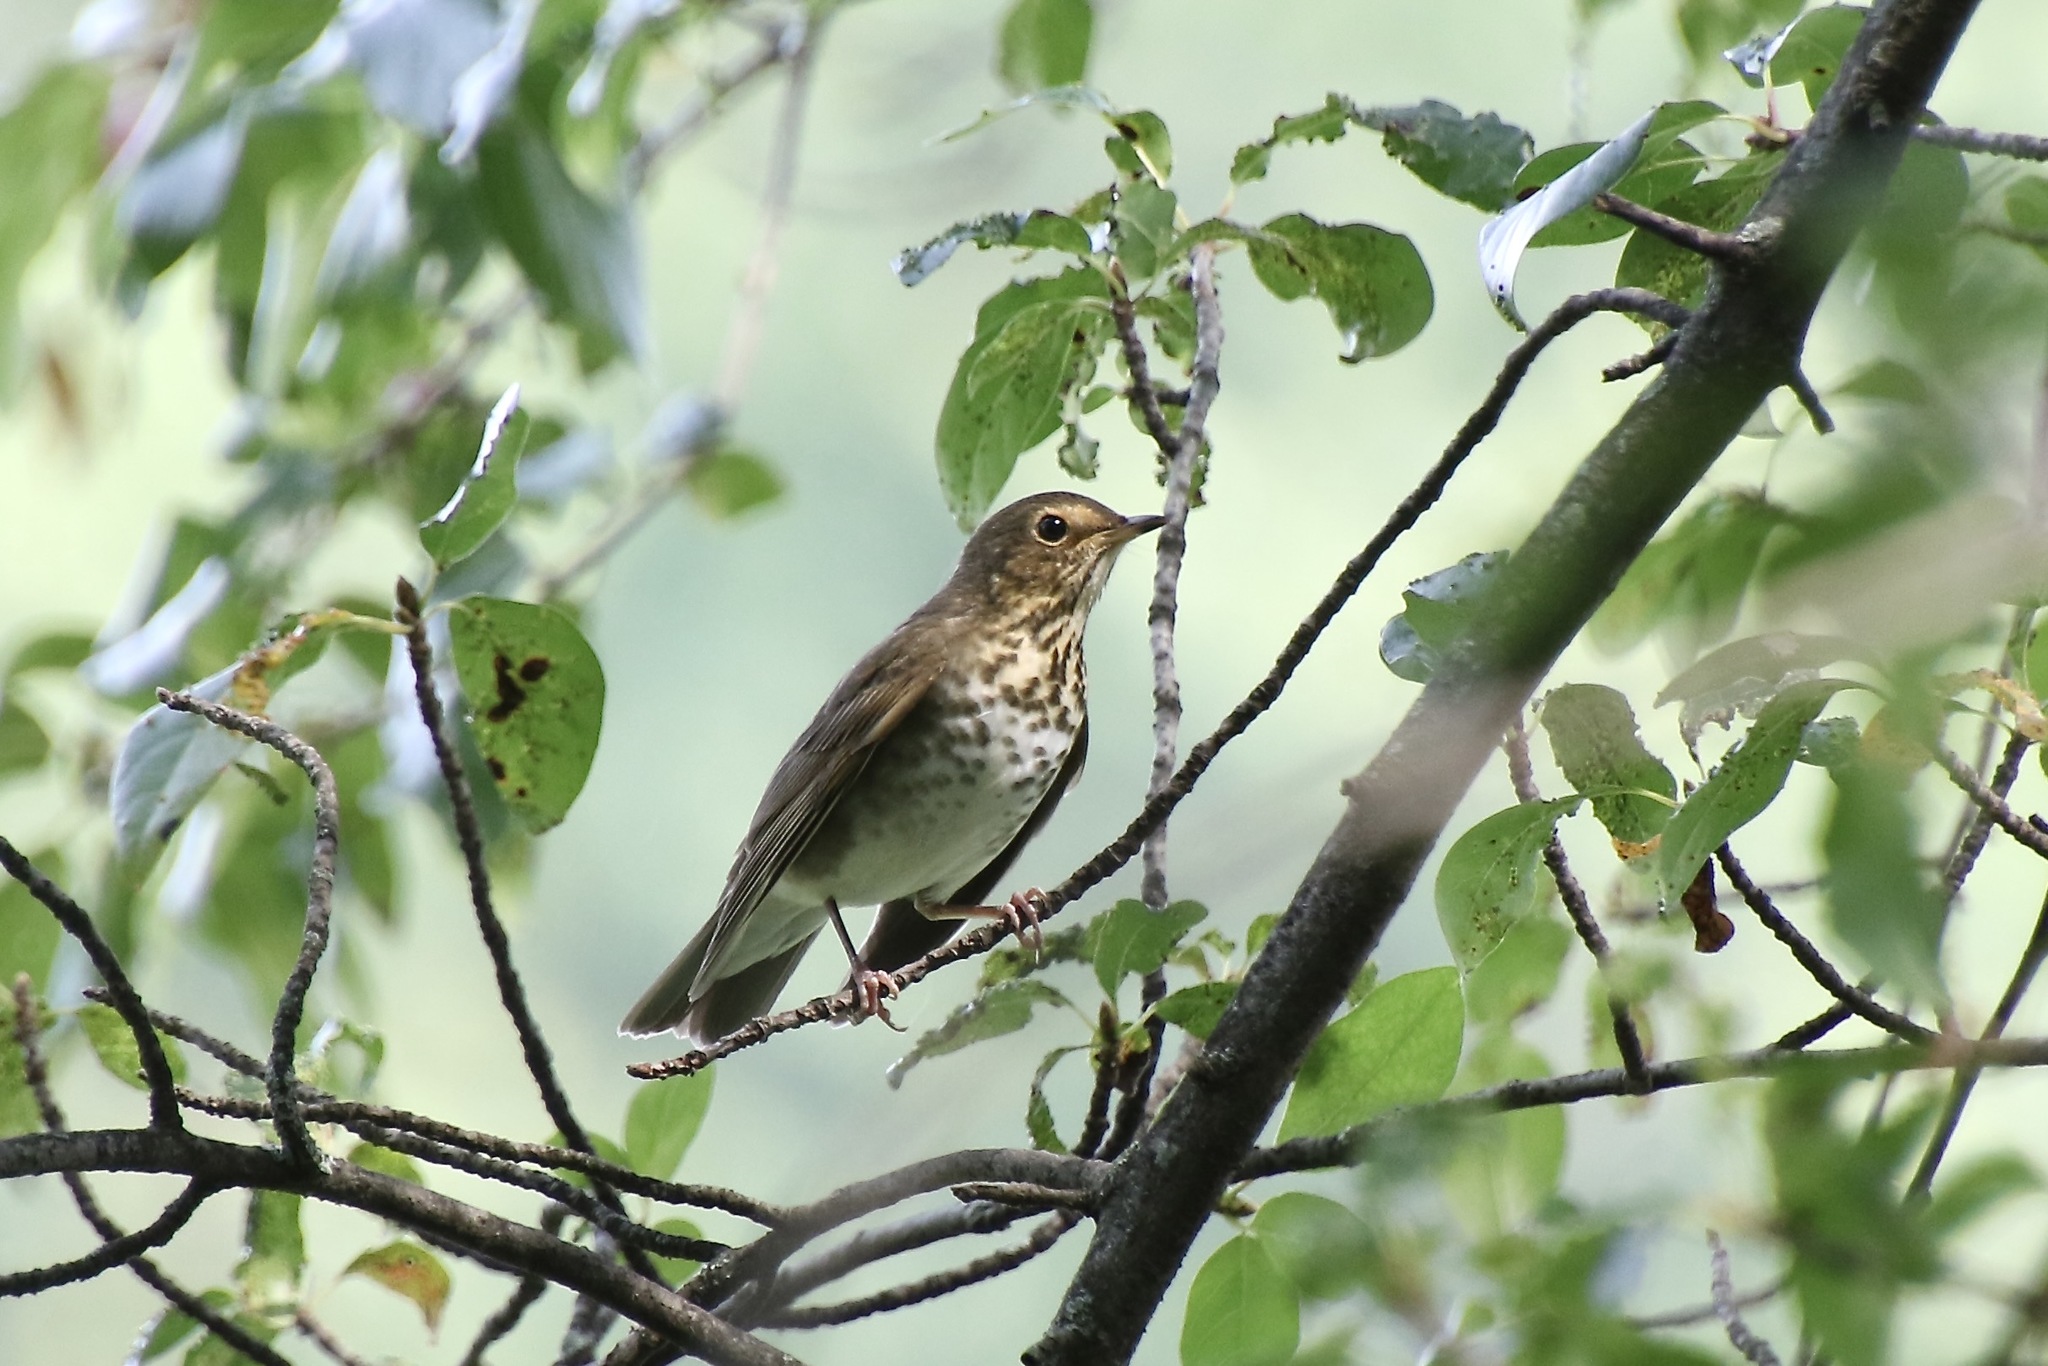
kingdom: Animalia
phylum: Chordata
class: Aves
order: Passeriformes
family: Turdidae
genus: Catharus
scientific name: Catharus ustulatus
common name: Swainson's thrush
